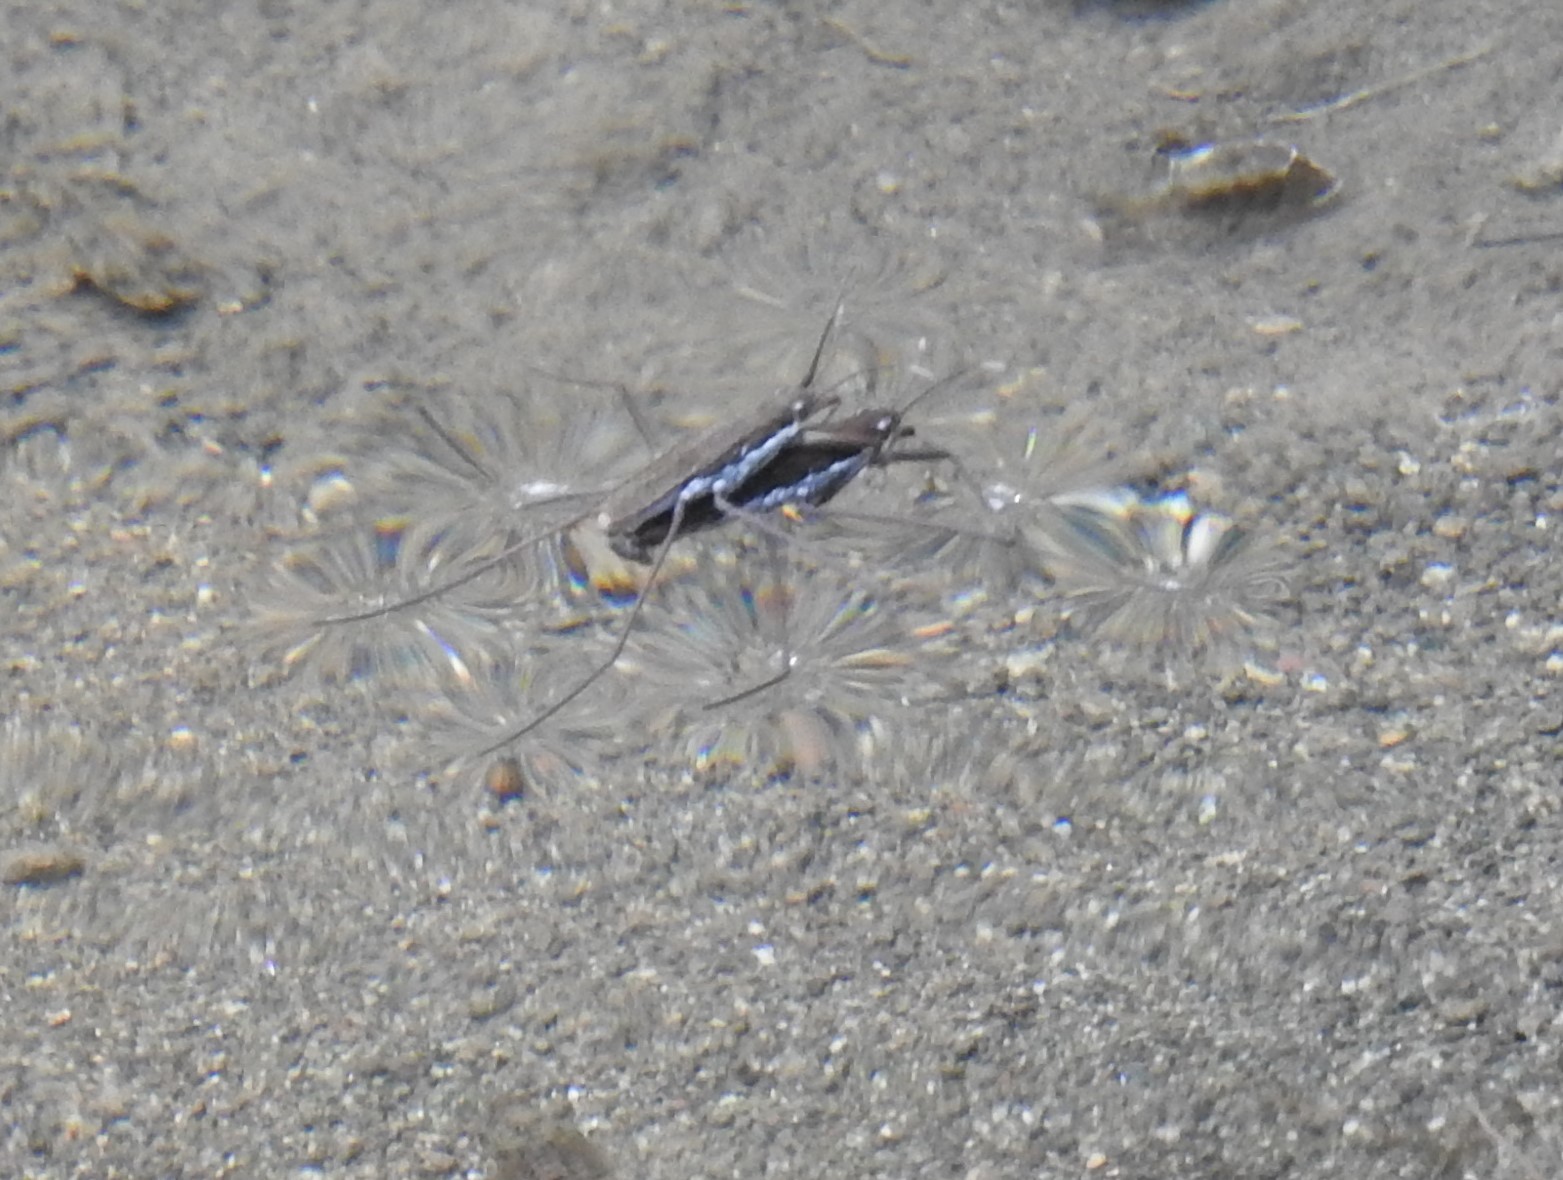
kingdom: Animalia
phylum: Arthropoda
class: Insecta
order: Hemiptera
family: Gerridae
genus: Aquarius
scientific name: Aquarius remigis
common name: Common water strider
